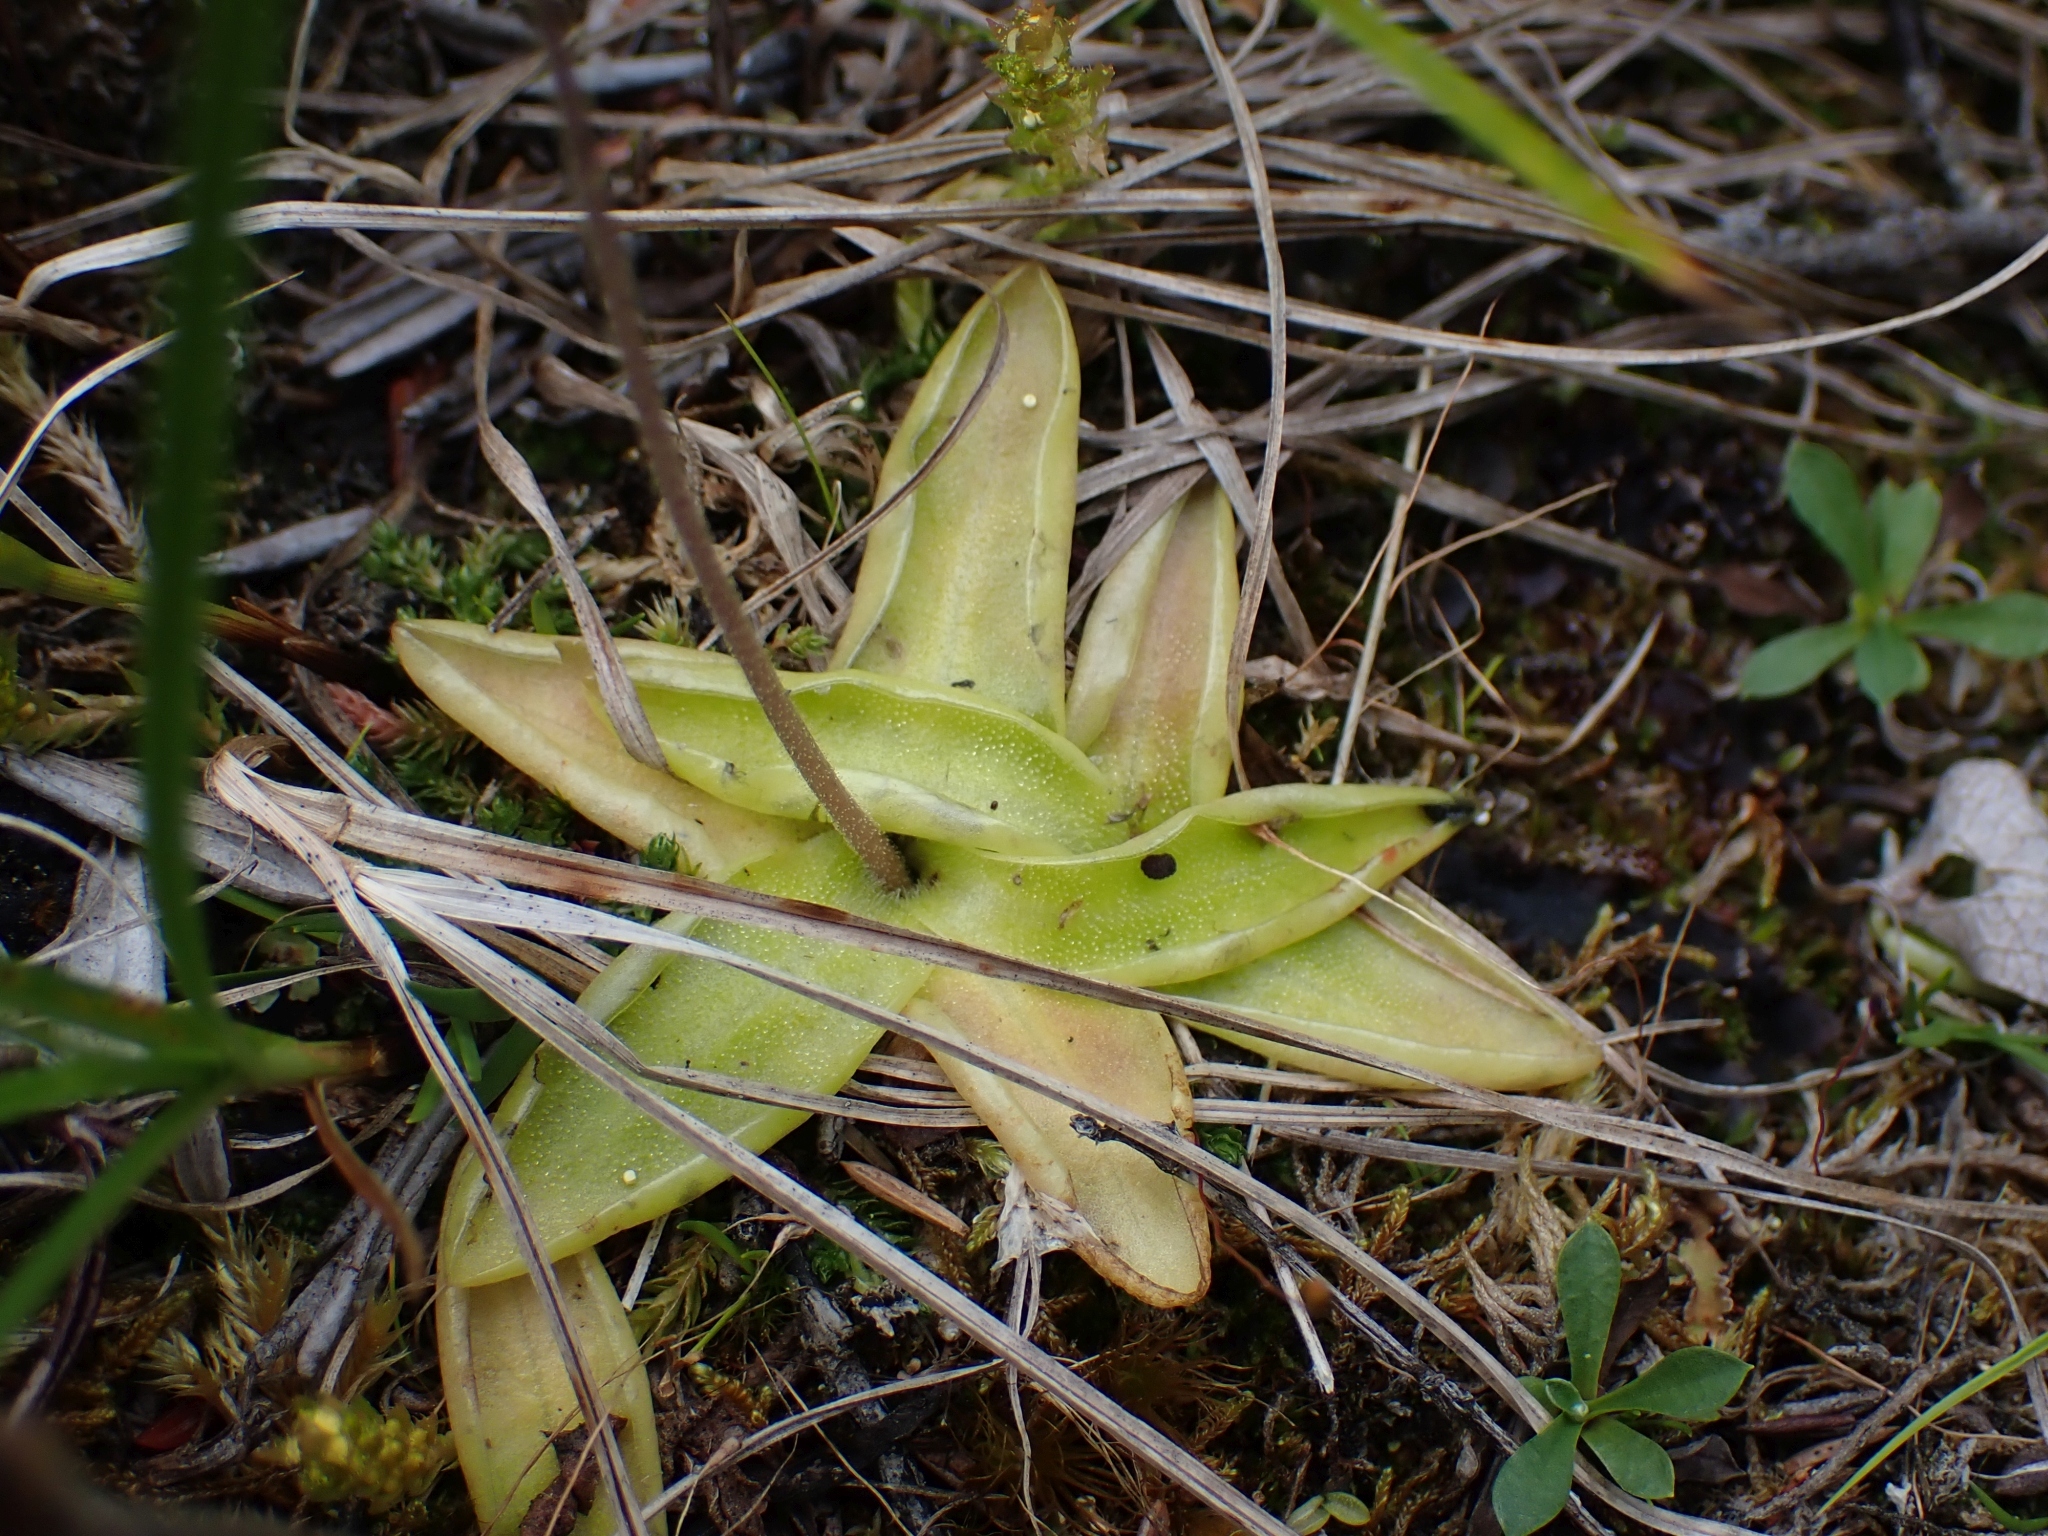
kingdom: Plantae
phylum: Tracheophyta
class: Magnoliopsida
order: Lamiales
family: Lentibulariaceae
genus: Pinguicula
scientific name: Pinguicula vulgaris
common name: Common butterwort
